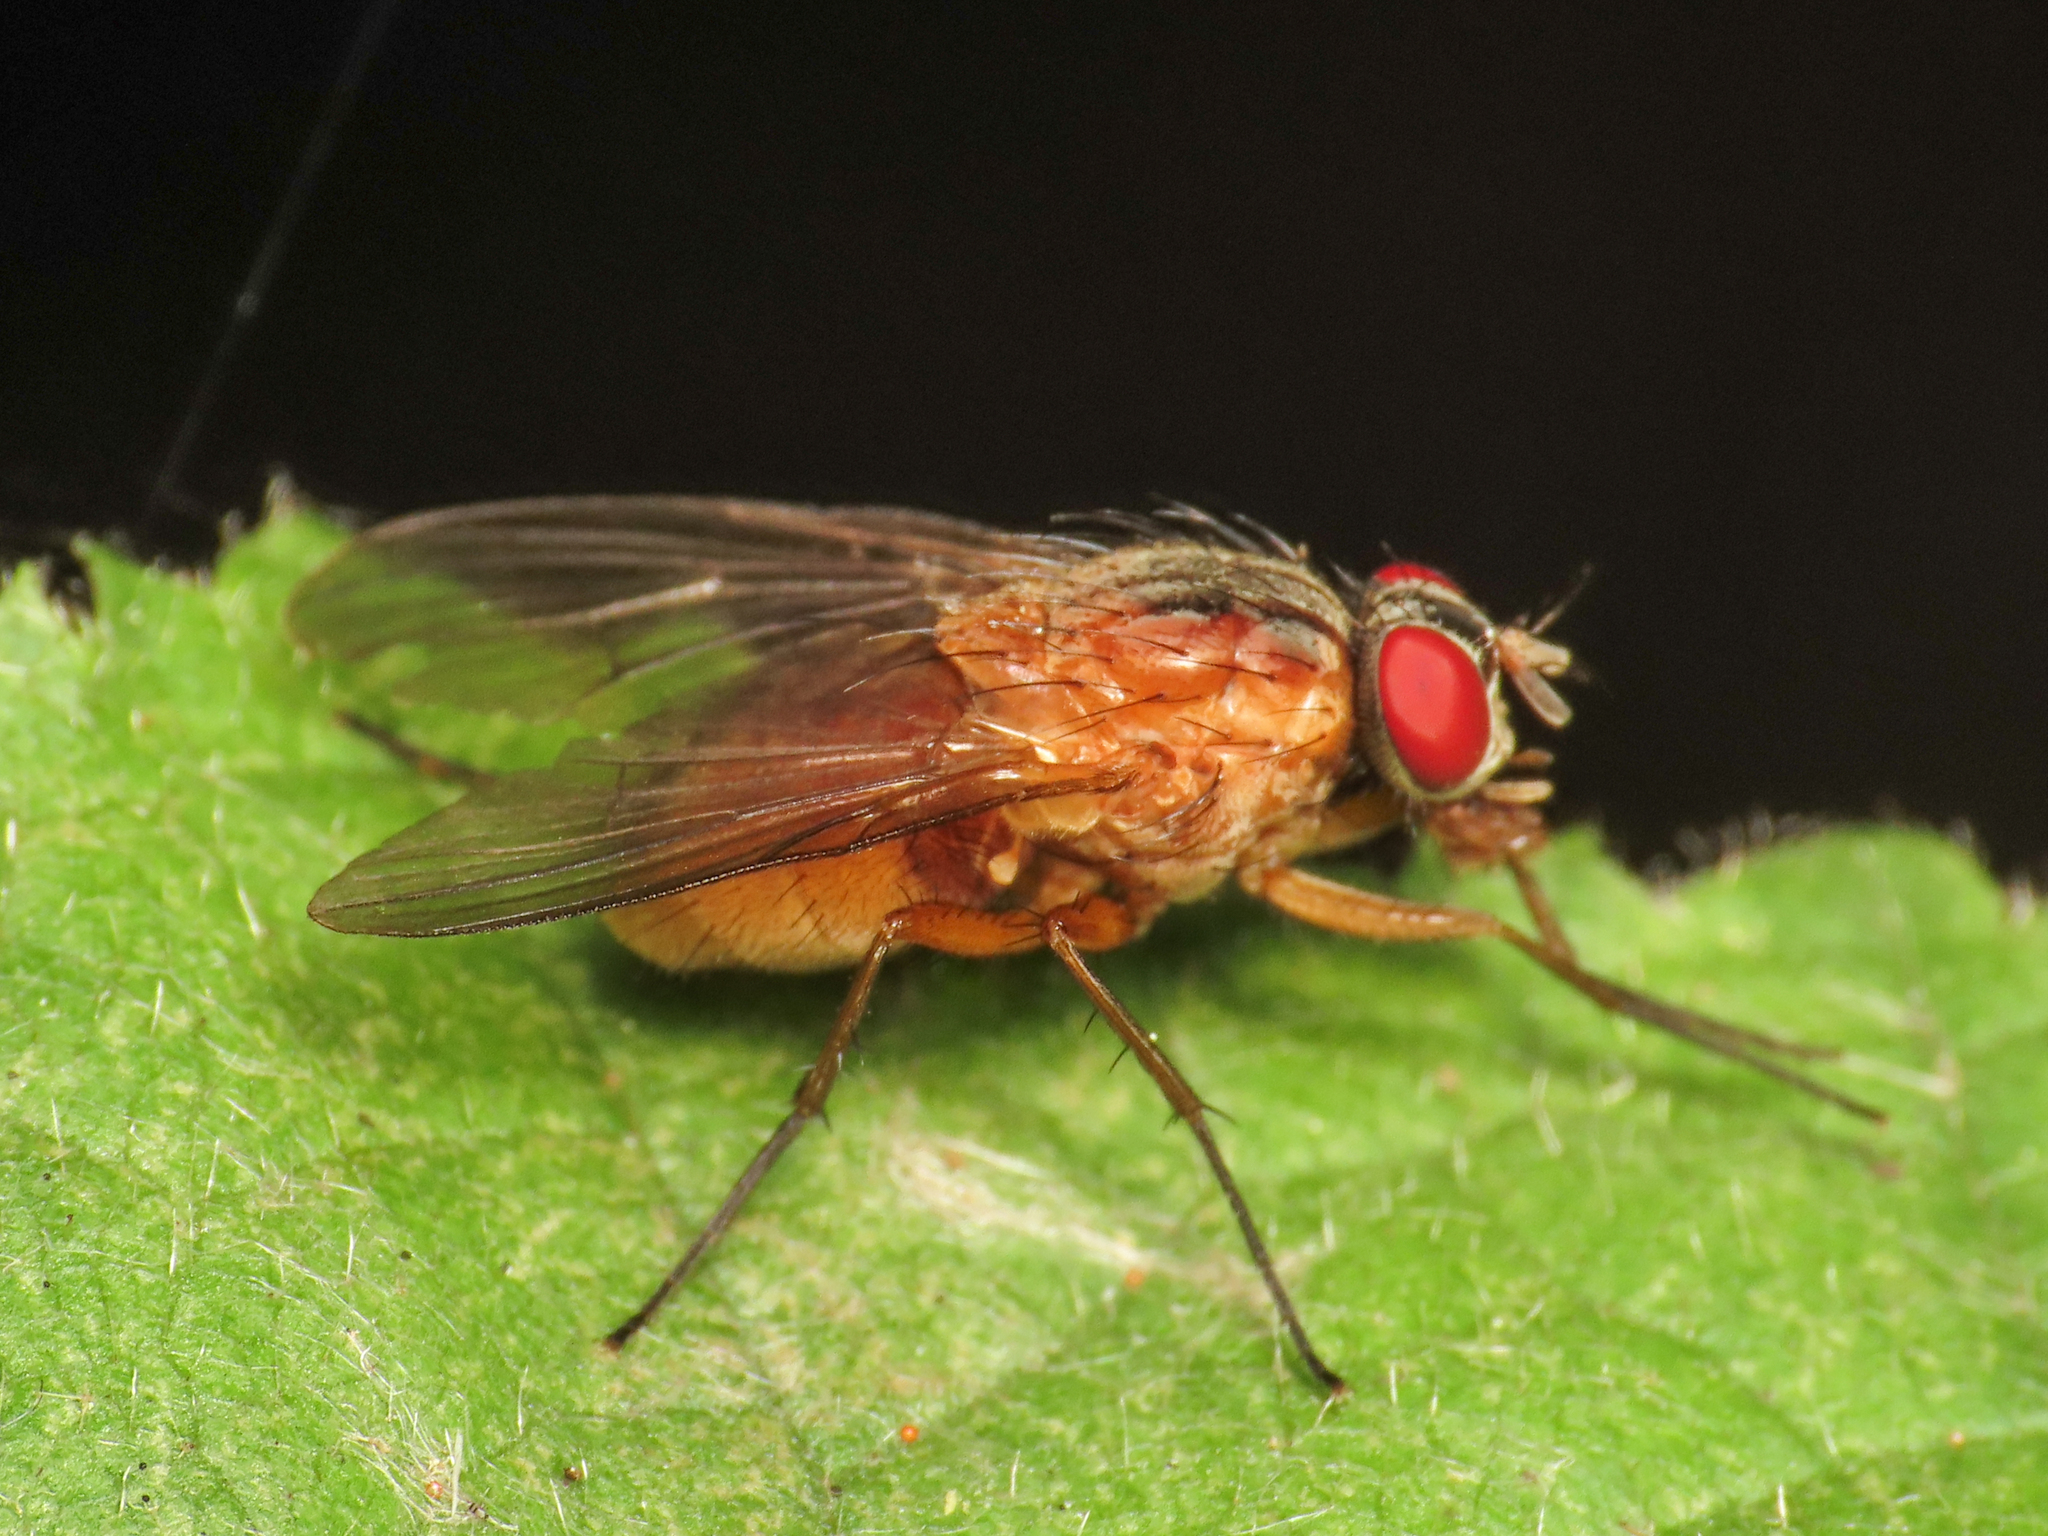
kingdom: Animalia
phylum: Arthropoda
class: Insecta
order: Diptera
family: Muscidae
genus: Phaonia
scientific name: Phaonia rufiventris
